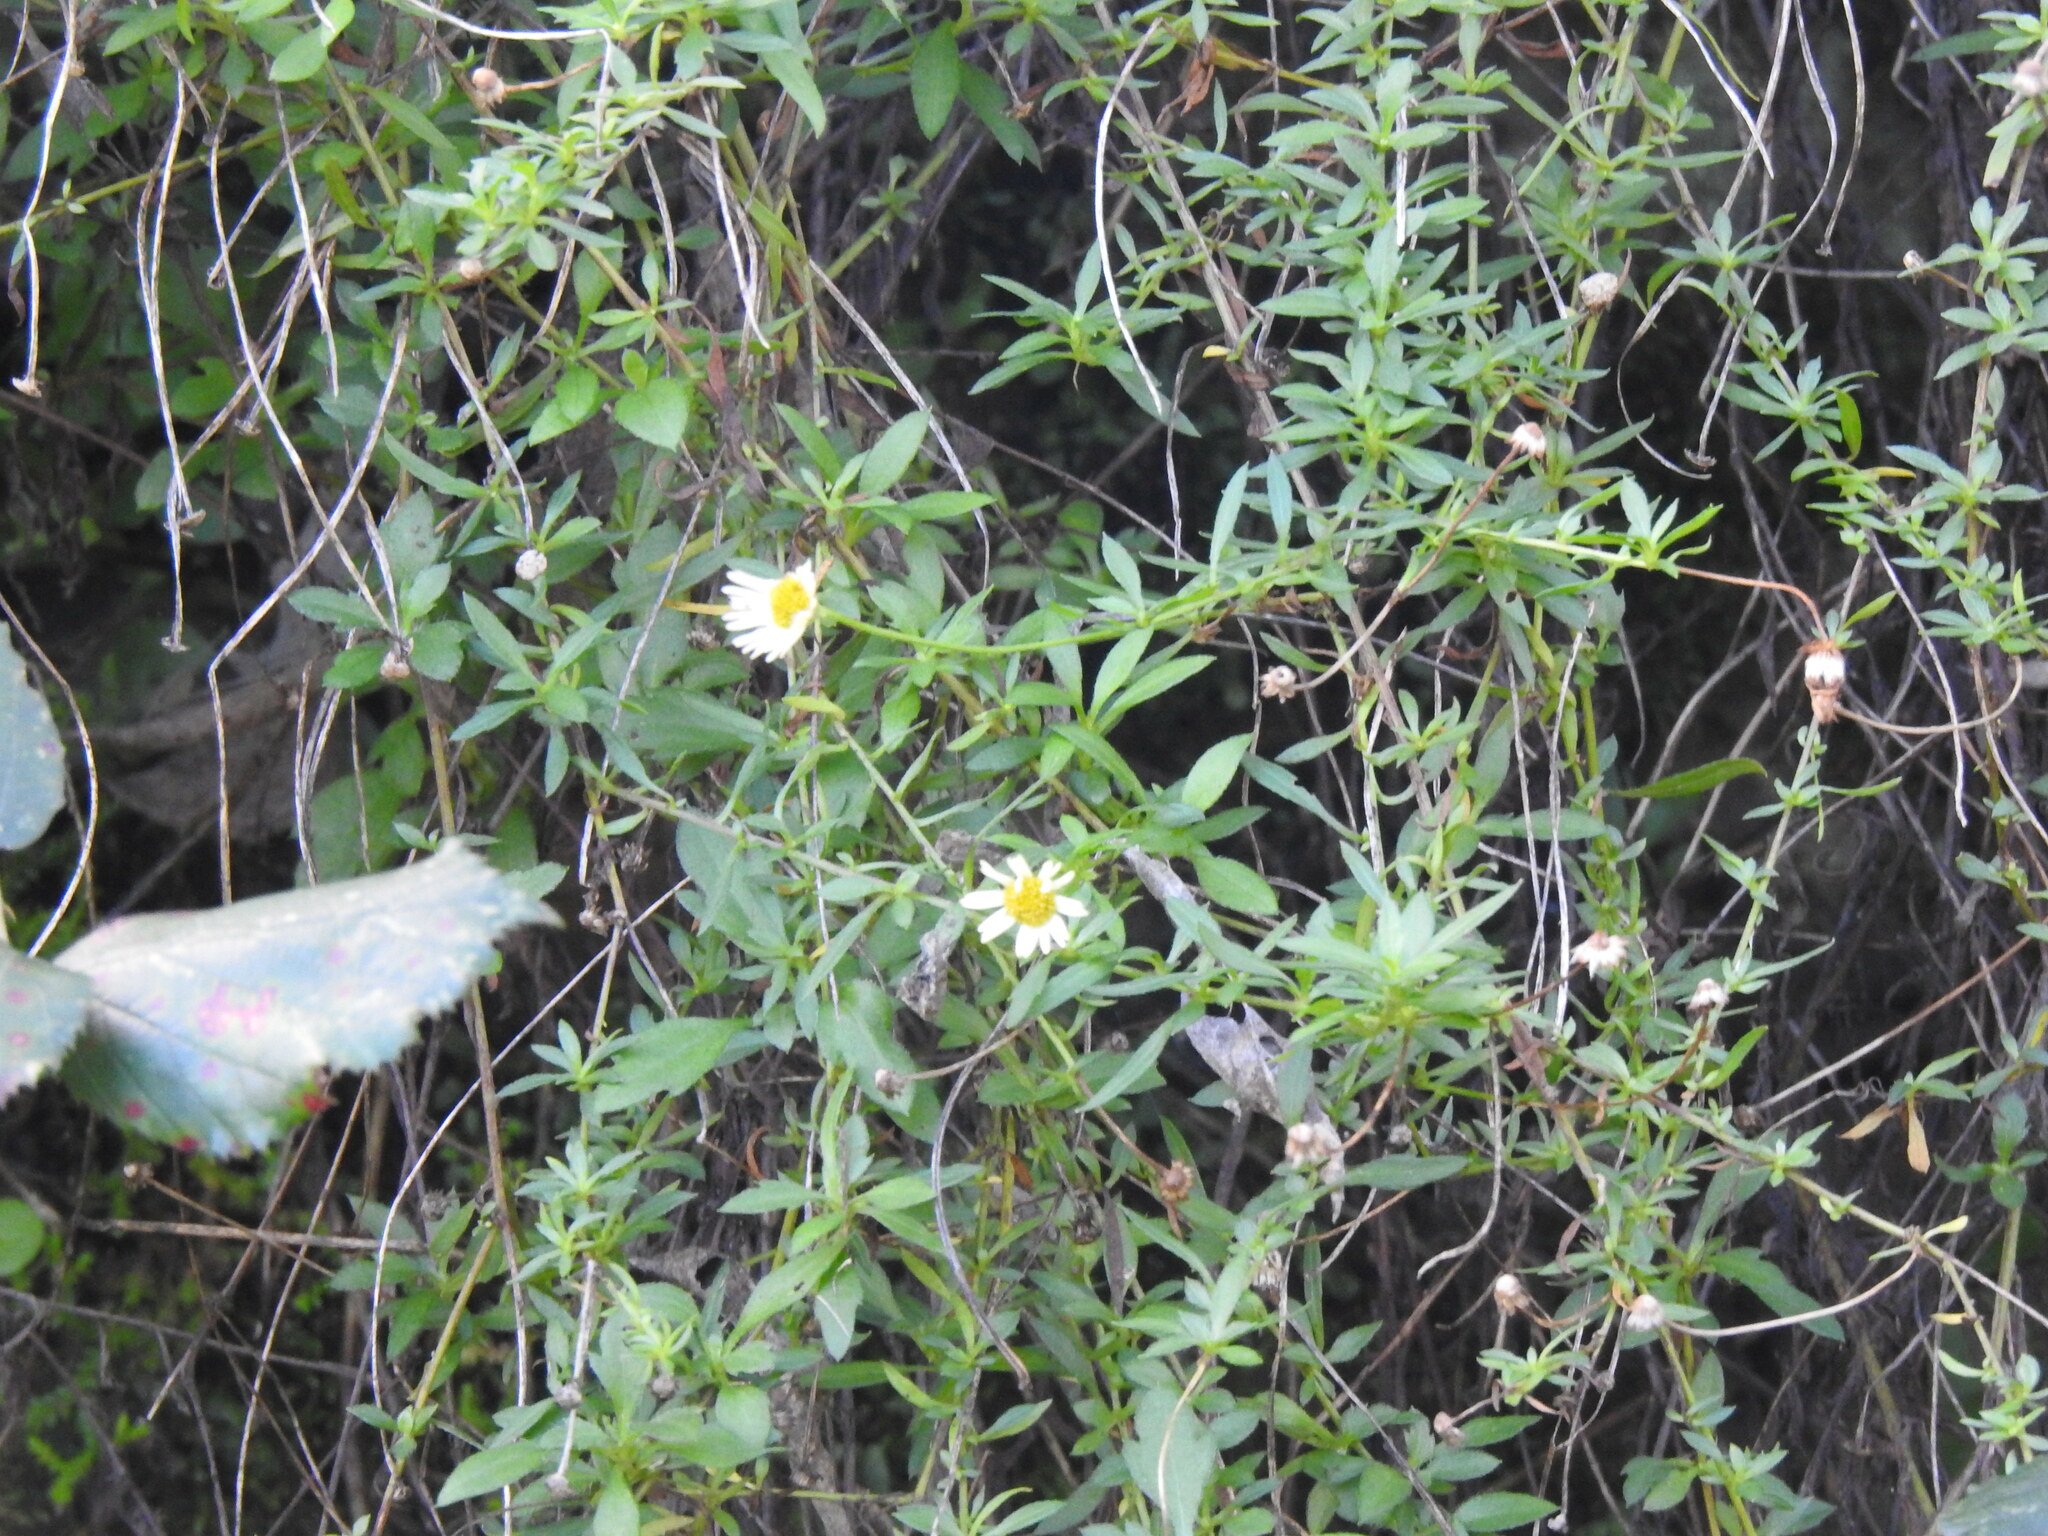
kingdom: Plantae
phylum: Tracheophyta
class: Magnoliopsida
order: Asterales
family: Asteraceae
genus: Erigeron
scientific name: Erigeron karvinskianus
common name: Mexican fleabane
